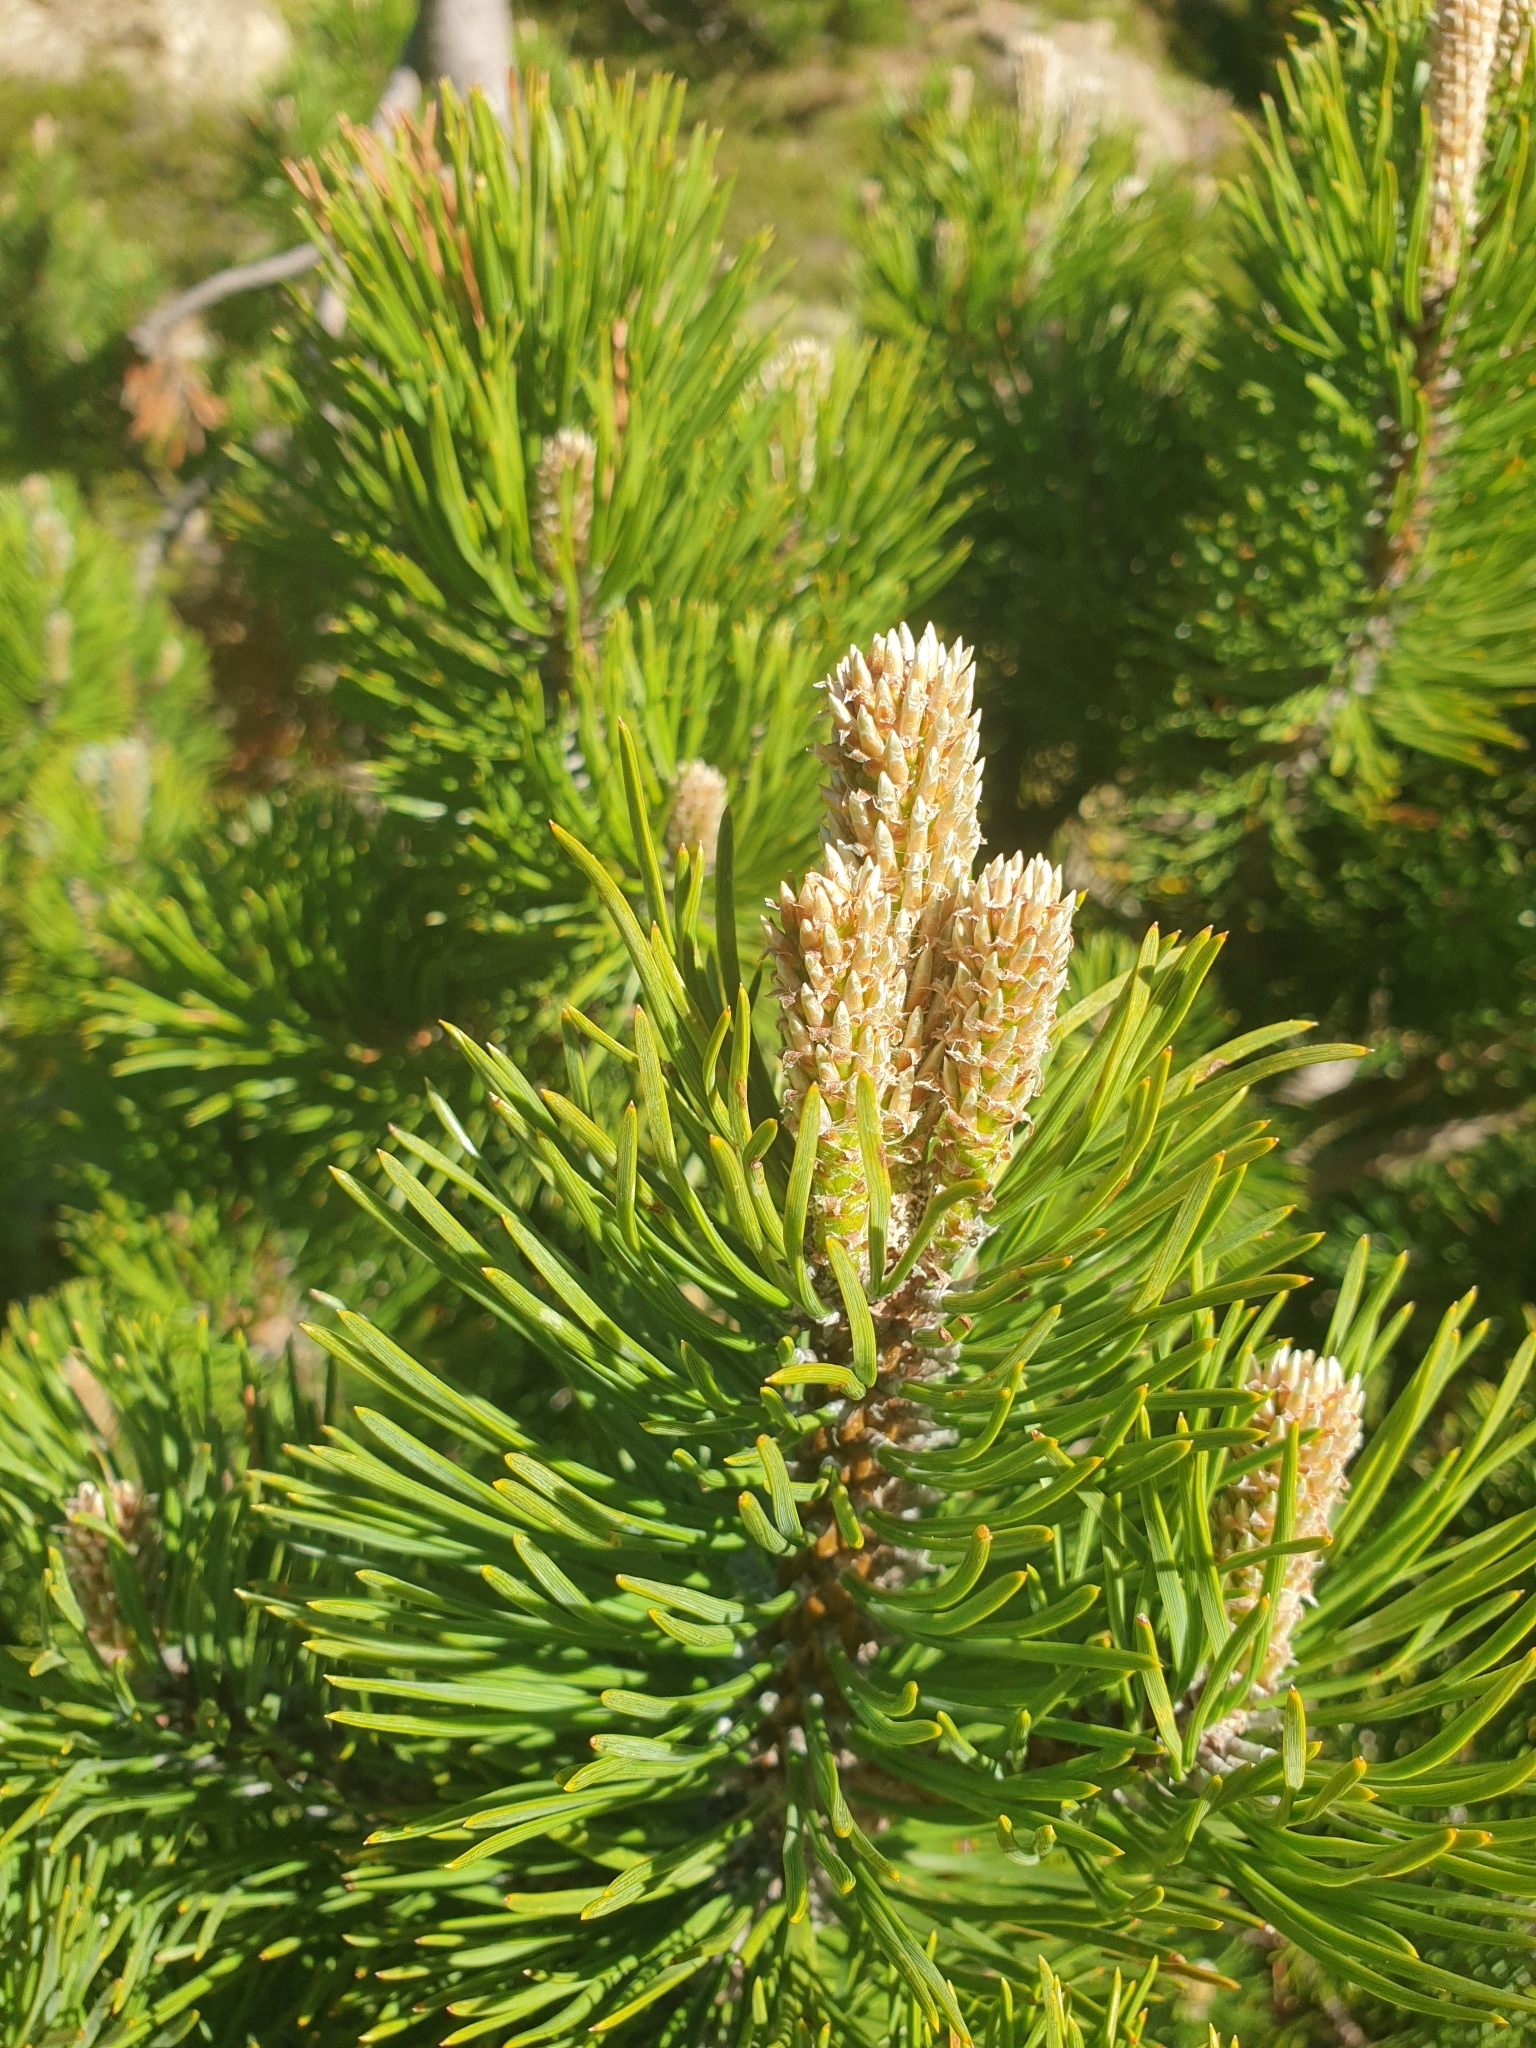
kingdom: Plantae
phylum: Tracheophyta
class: Pinopsida
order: Pinales
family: Pinaceae
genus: Pinus
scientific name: Pinus uncinata
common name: Mountain pine
